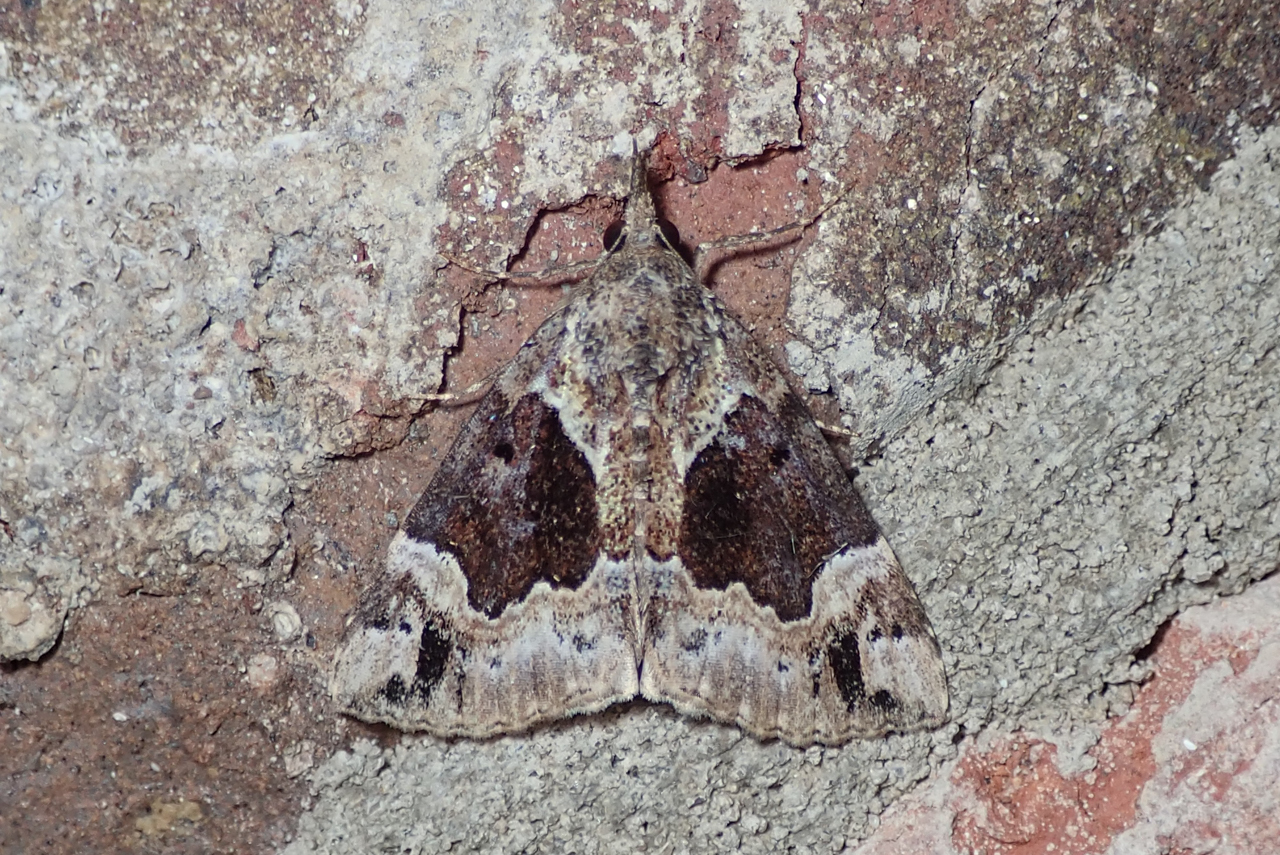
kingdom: Animalia
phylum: Arthropoda
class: Insecta
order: Lepidoptera
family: Erebidae
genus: Hypena
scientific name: Hypena palparia
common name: Mottled bomolocha moth
